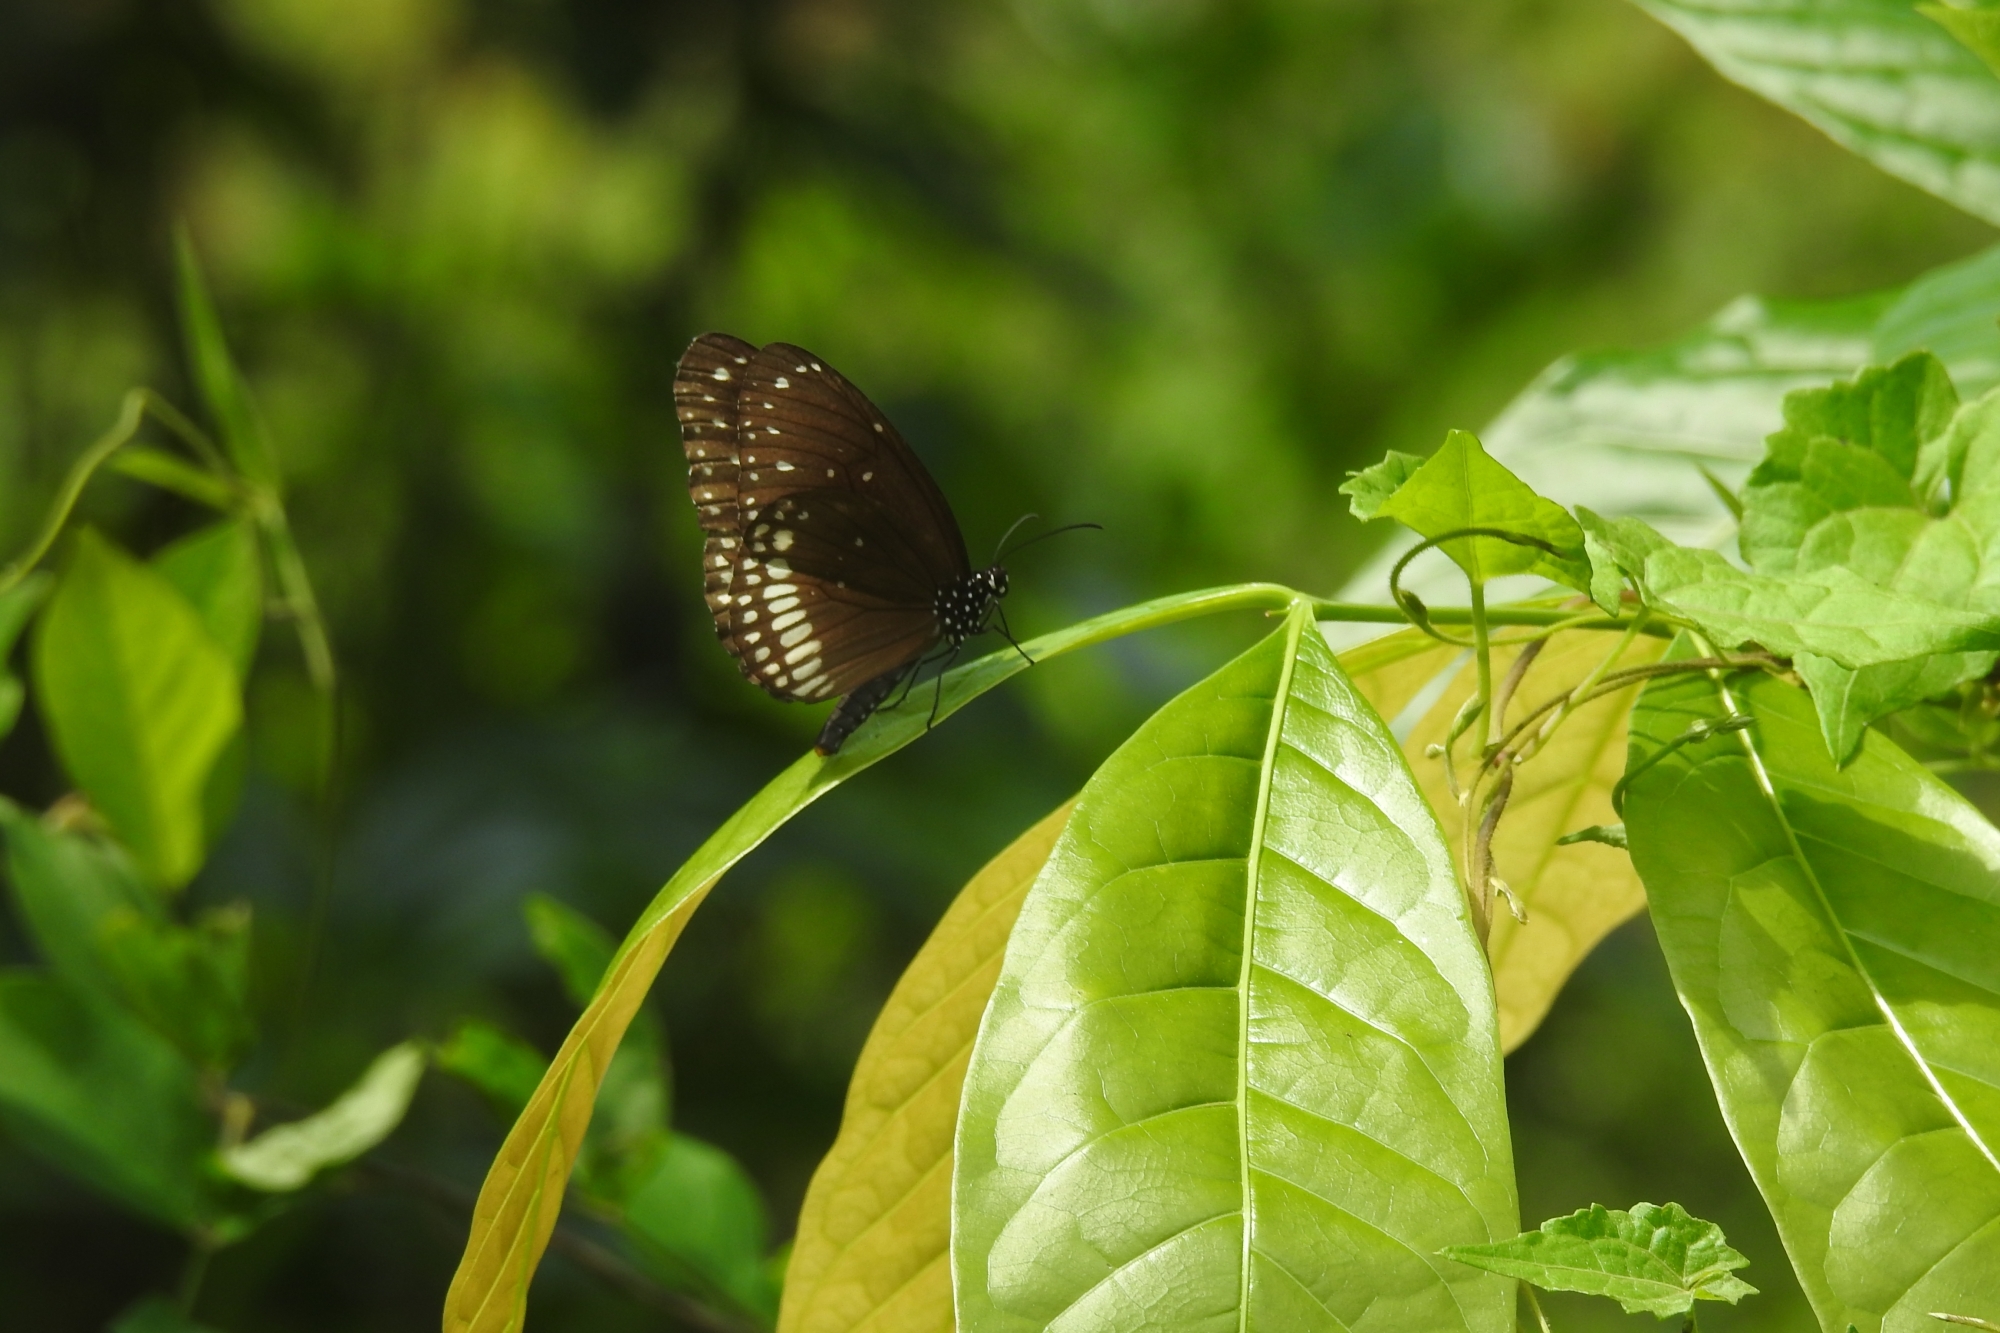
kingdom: Animalia
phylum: Arthropoda
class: Insecta
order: Lepidoptera
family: Nymphalidae
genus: Euploea
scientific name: Euploea core
